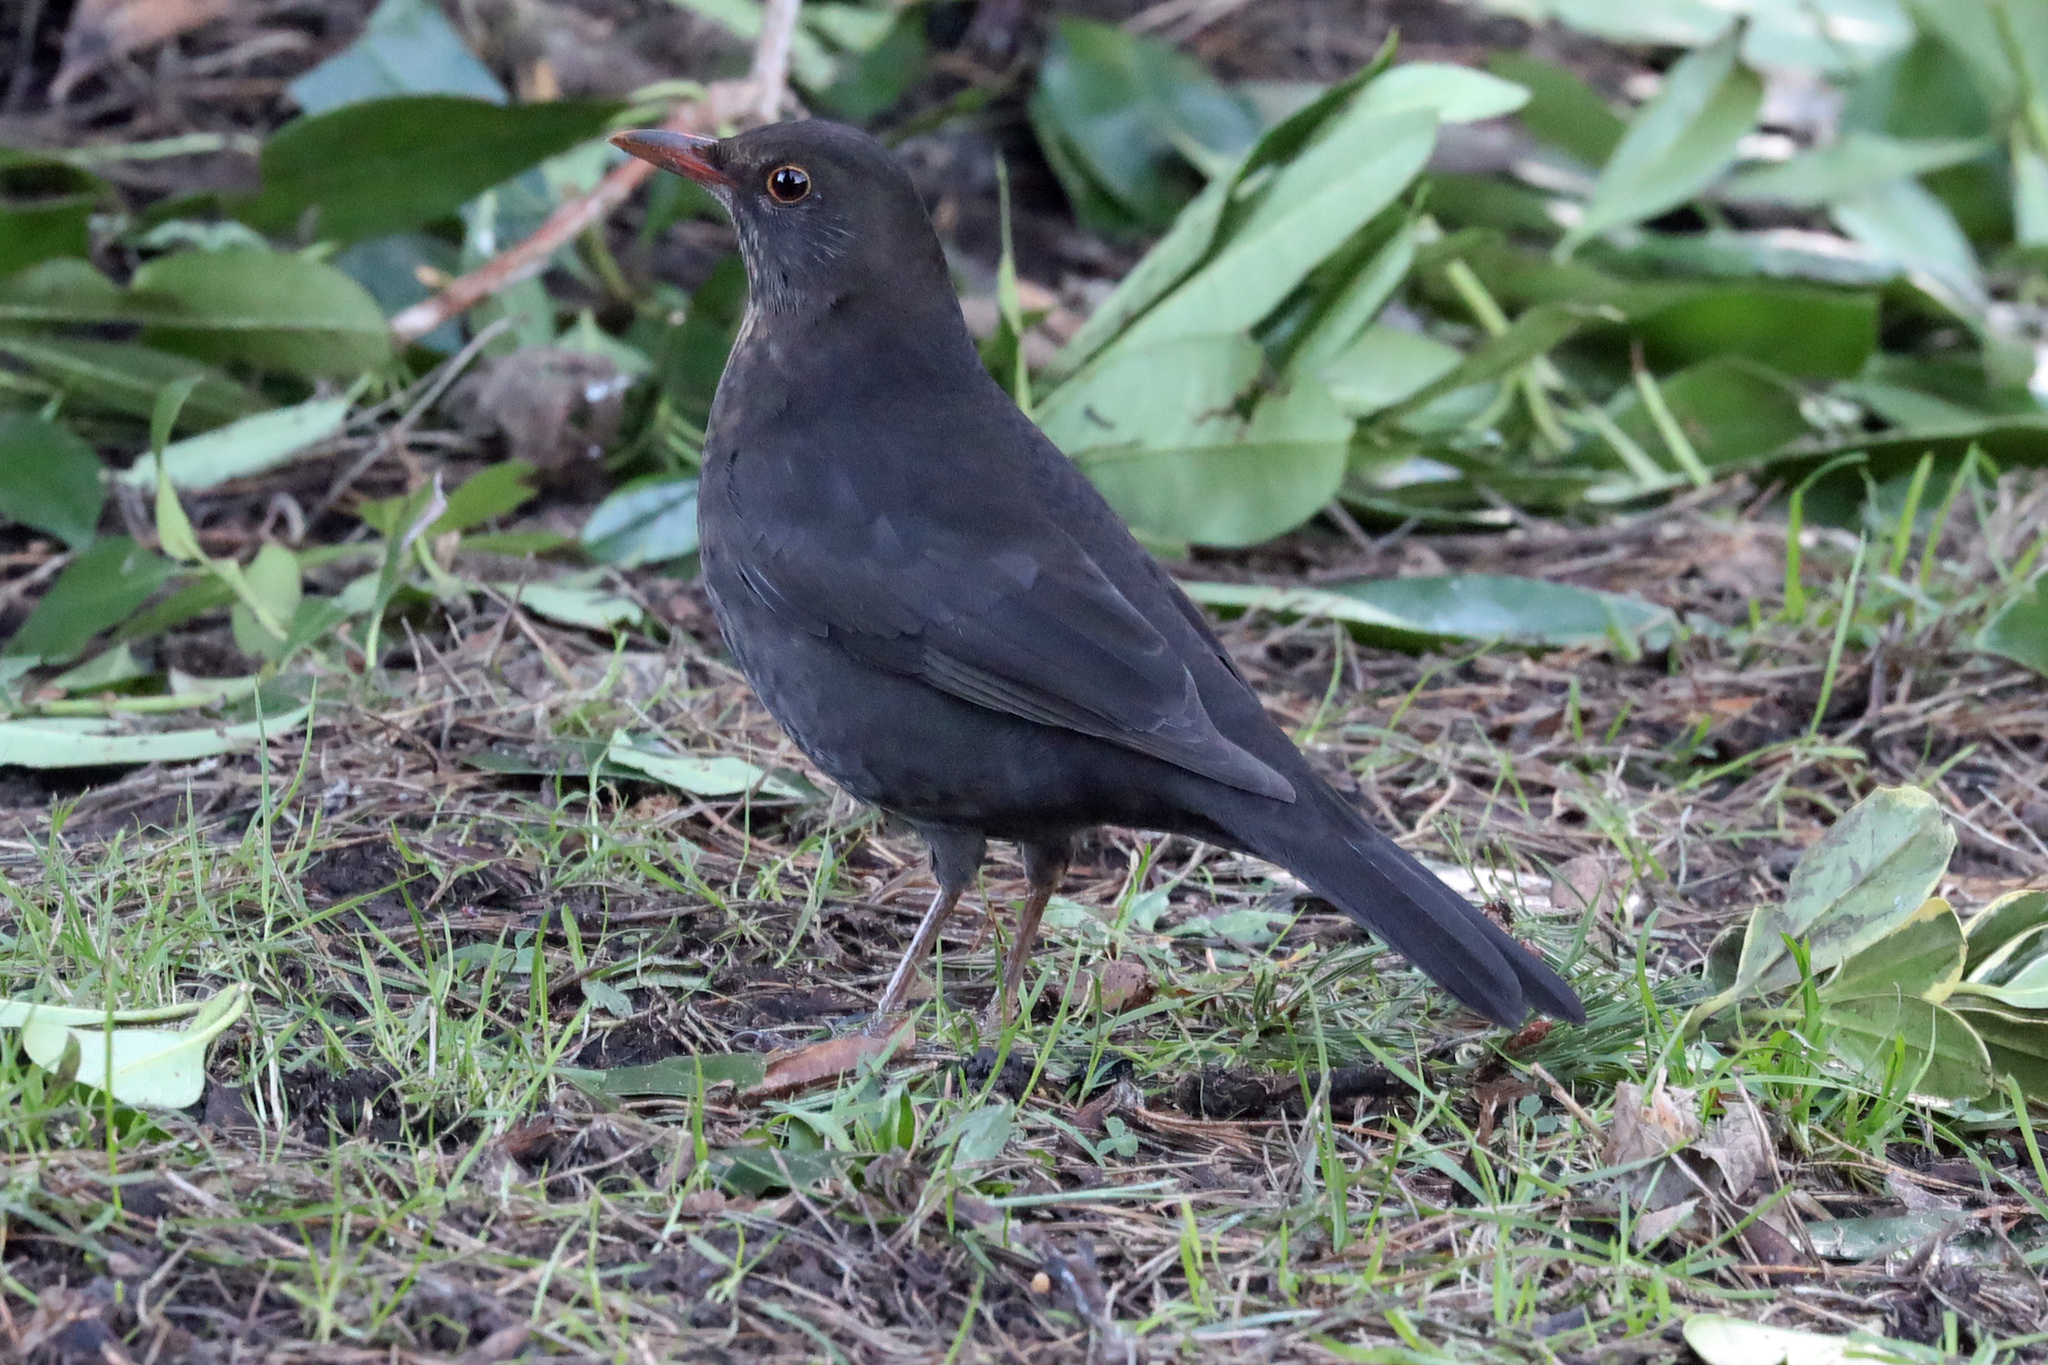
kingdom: Animalia
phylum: Chordata
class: Aves
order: Passeriformes
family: Turdidae
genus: Turdus
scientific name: Turdus merula
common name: Common blackbird
